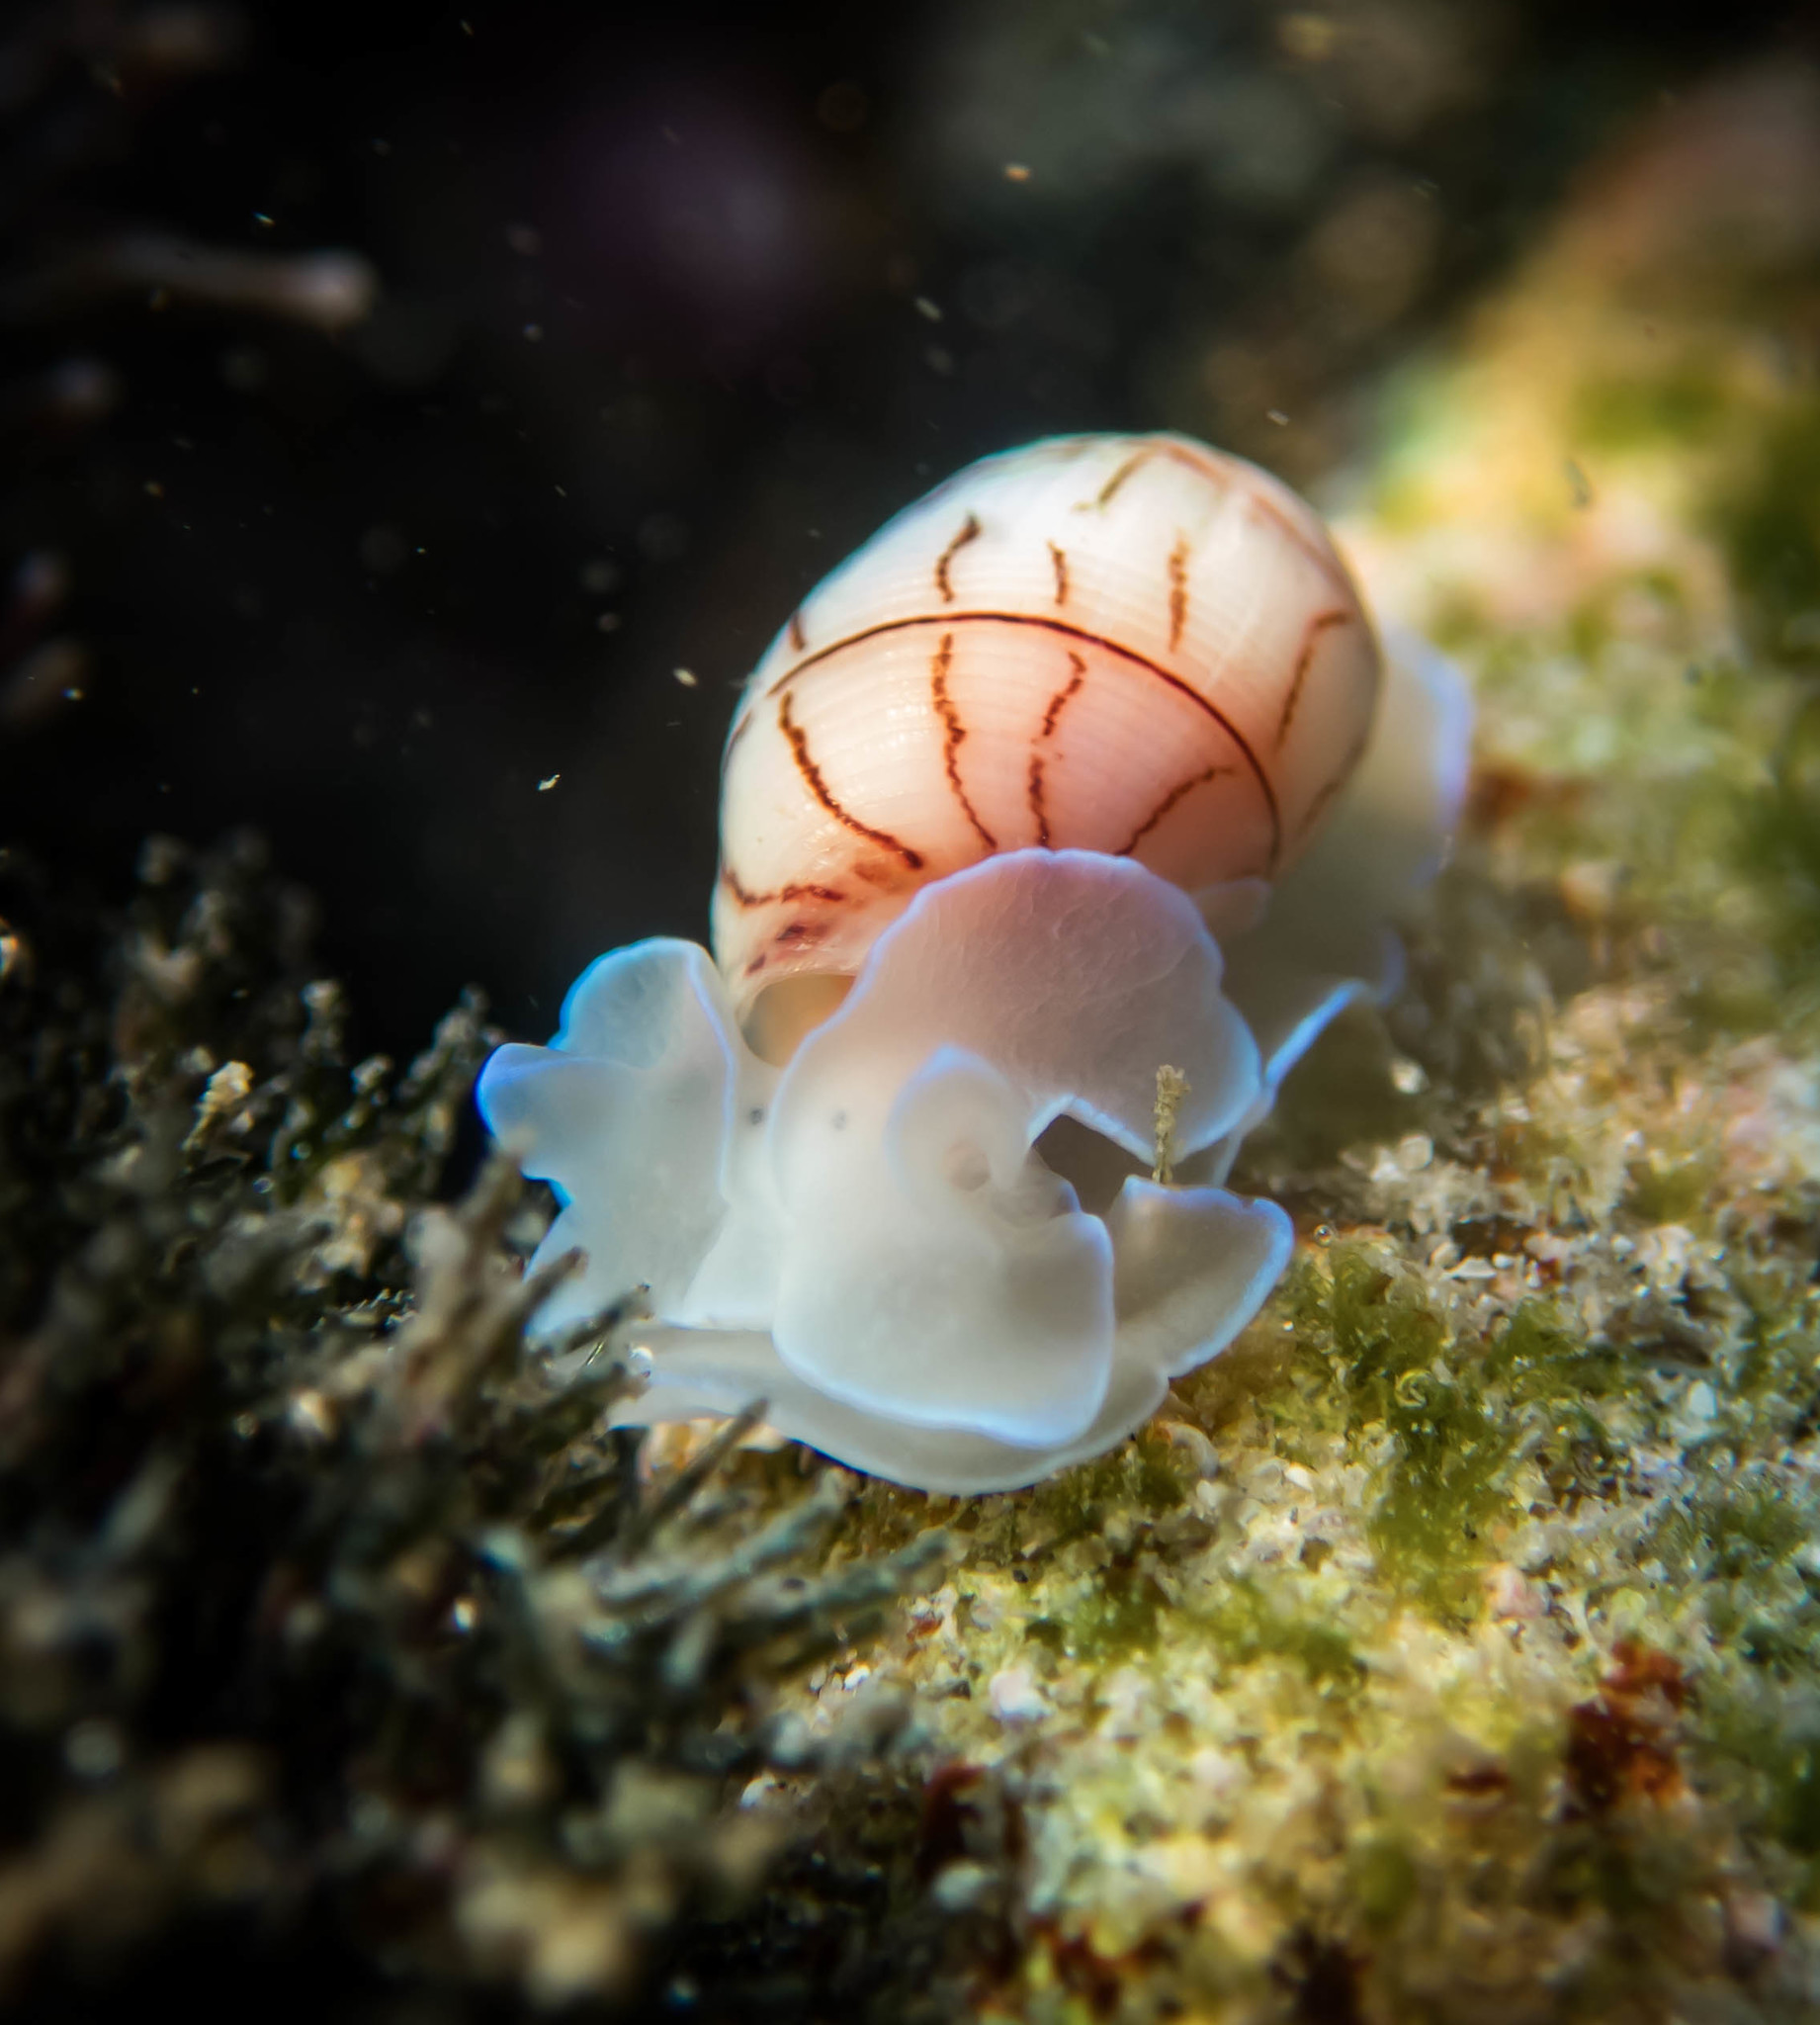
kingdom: Animalia
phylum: Mollusca
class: Gastropoda
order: Cephalaspidea
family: Aplustridae
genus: Bullina
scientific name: Bullina lineata
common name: Lined bubble snail
